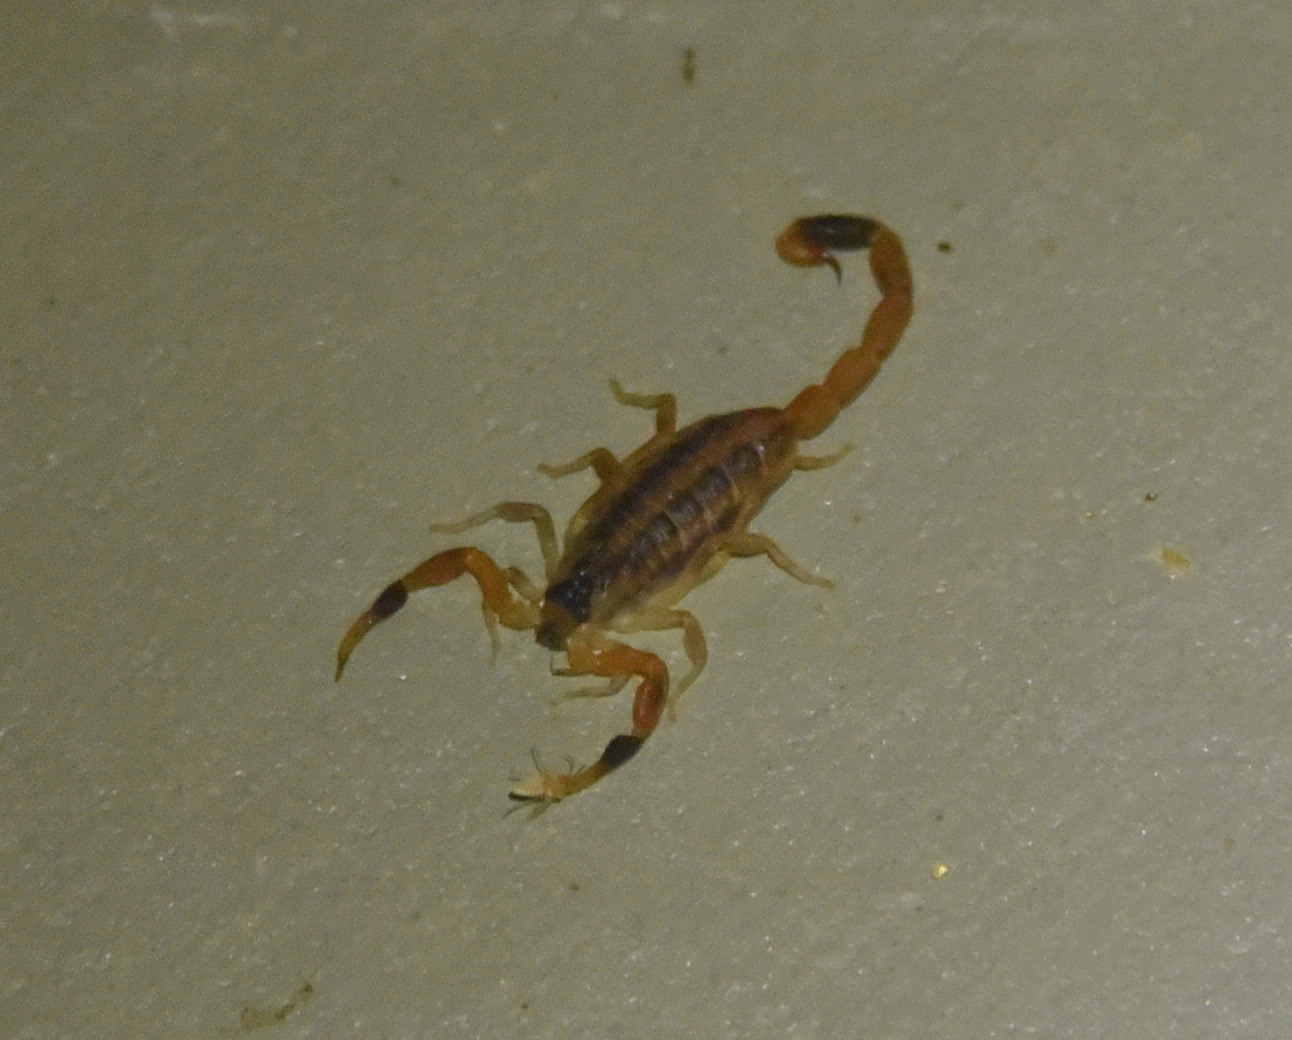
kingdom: Animalia
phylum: Arthropoda
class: Arachnida
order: Scorpiones
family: Buthidae
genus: Centruroides
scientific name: Centruroides vittatus
